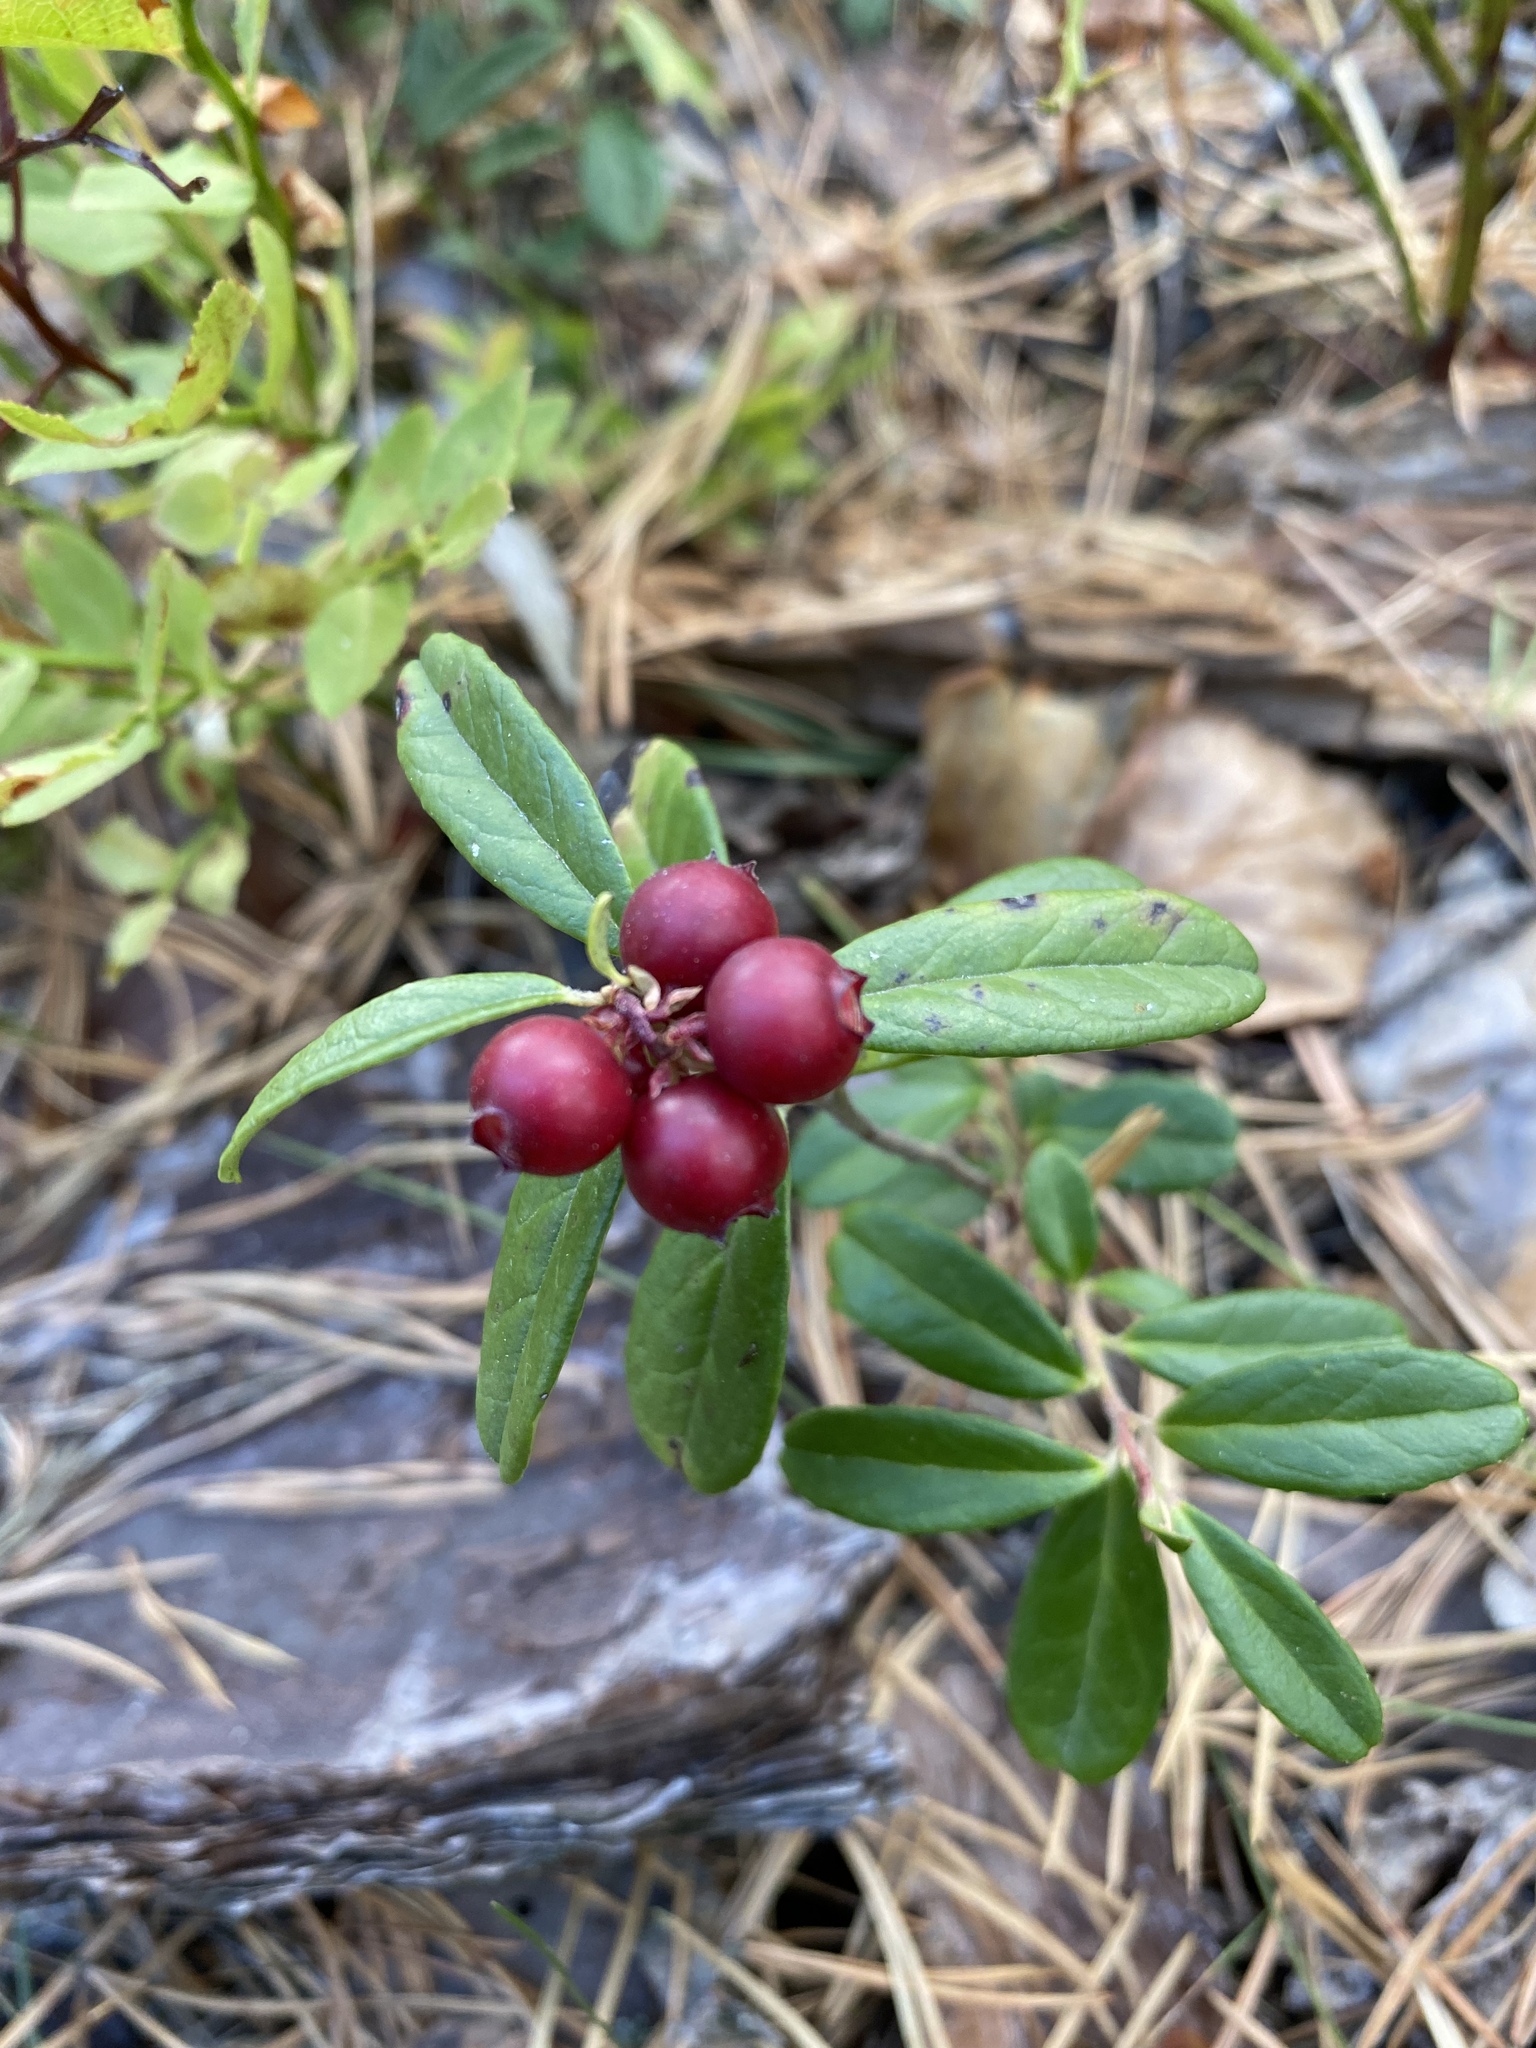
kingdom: Plantae
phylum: Tracheophyta
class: Magnoliopsida
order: Ericales
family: Ericaceae
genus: Vaccinium
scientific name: Vaccinium vitis-idaea
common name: Cowberry
